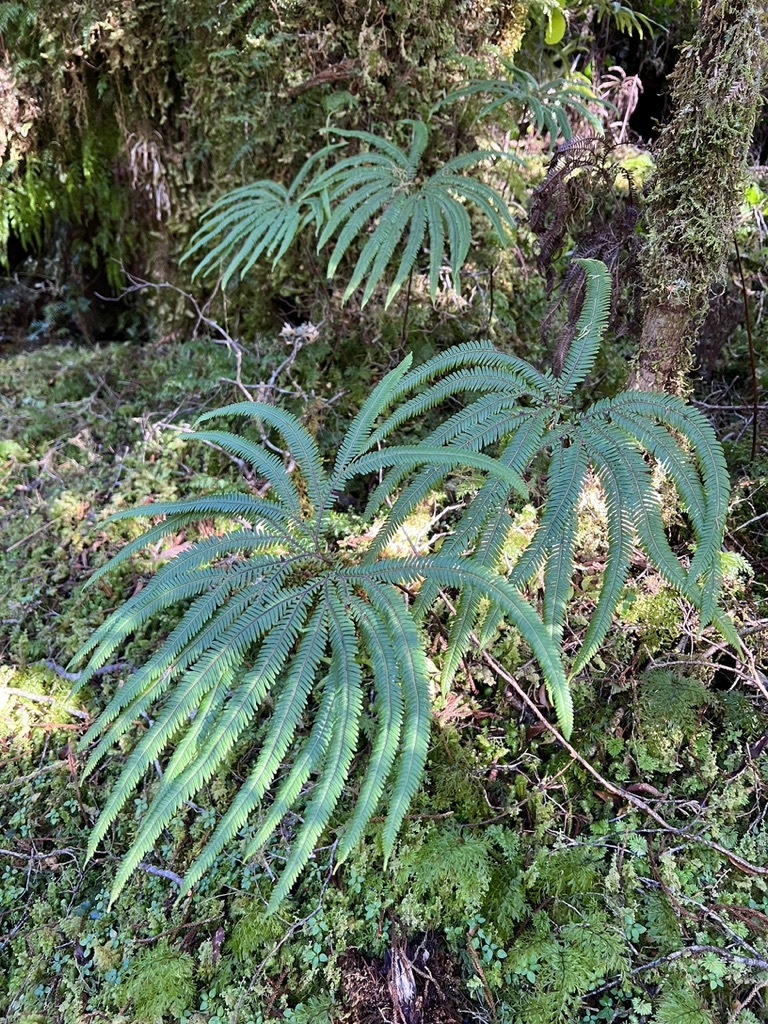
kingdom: Plantae
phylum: Tracheophyta
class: Polypodiopsida
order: Gleicheniales
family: Gleicheniaceae
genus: Sticherus
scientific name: Sticherus cunninghamii
